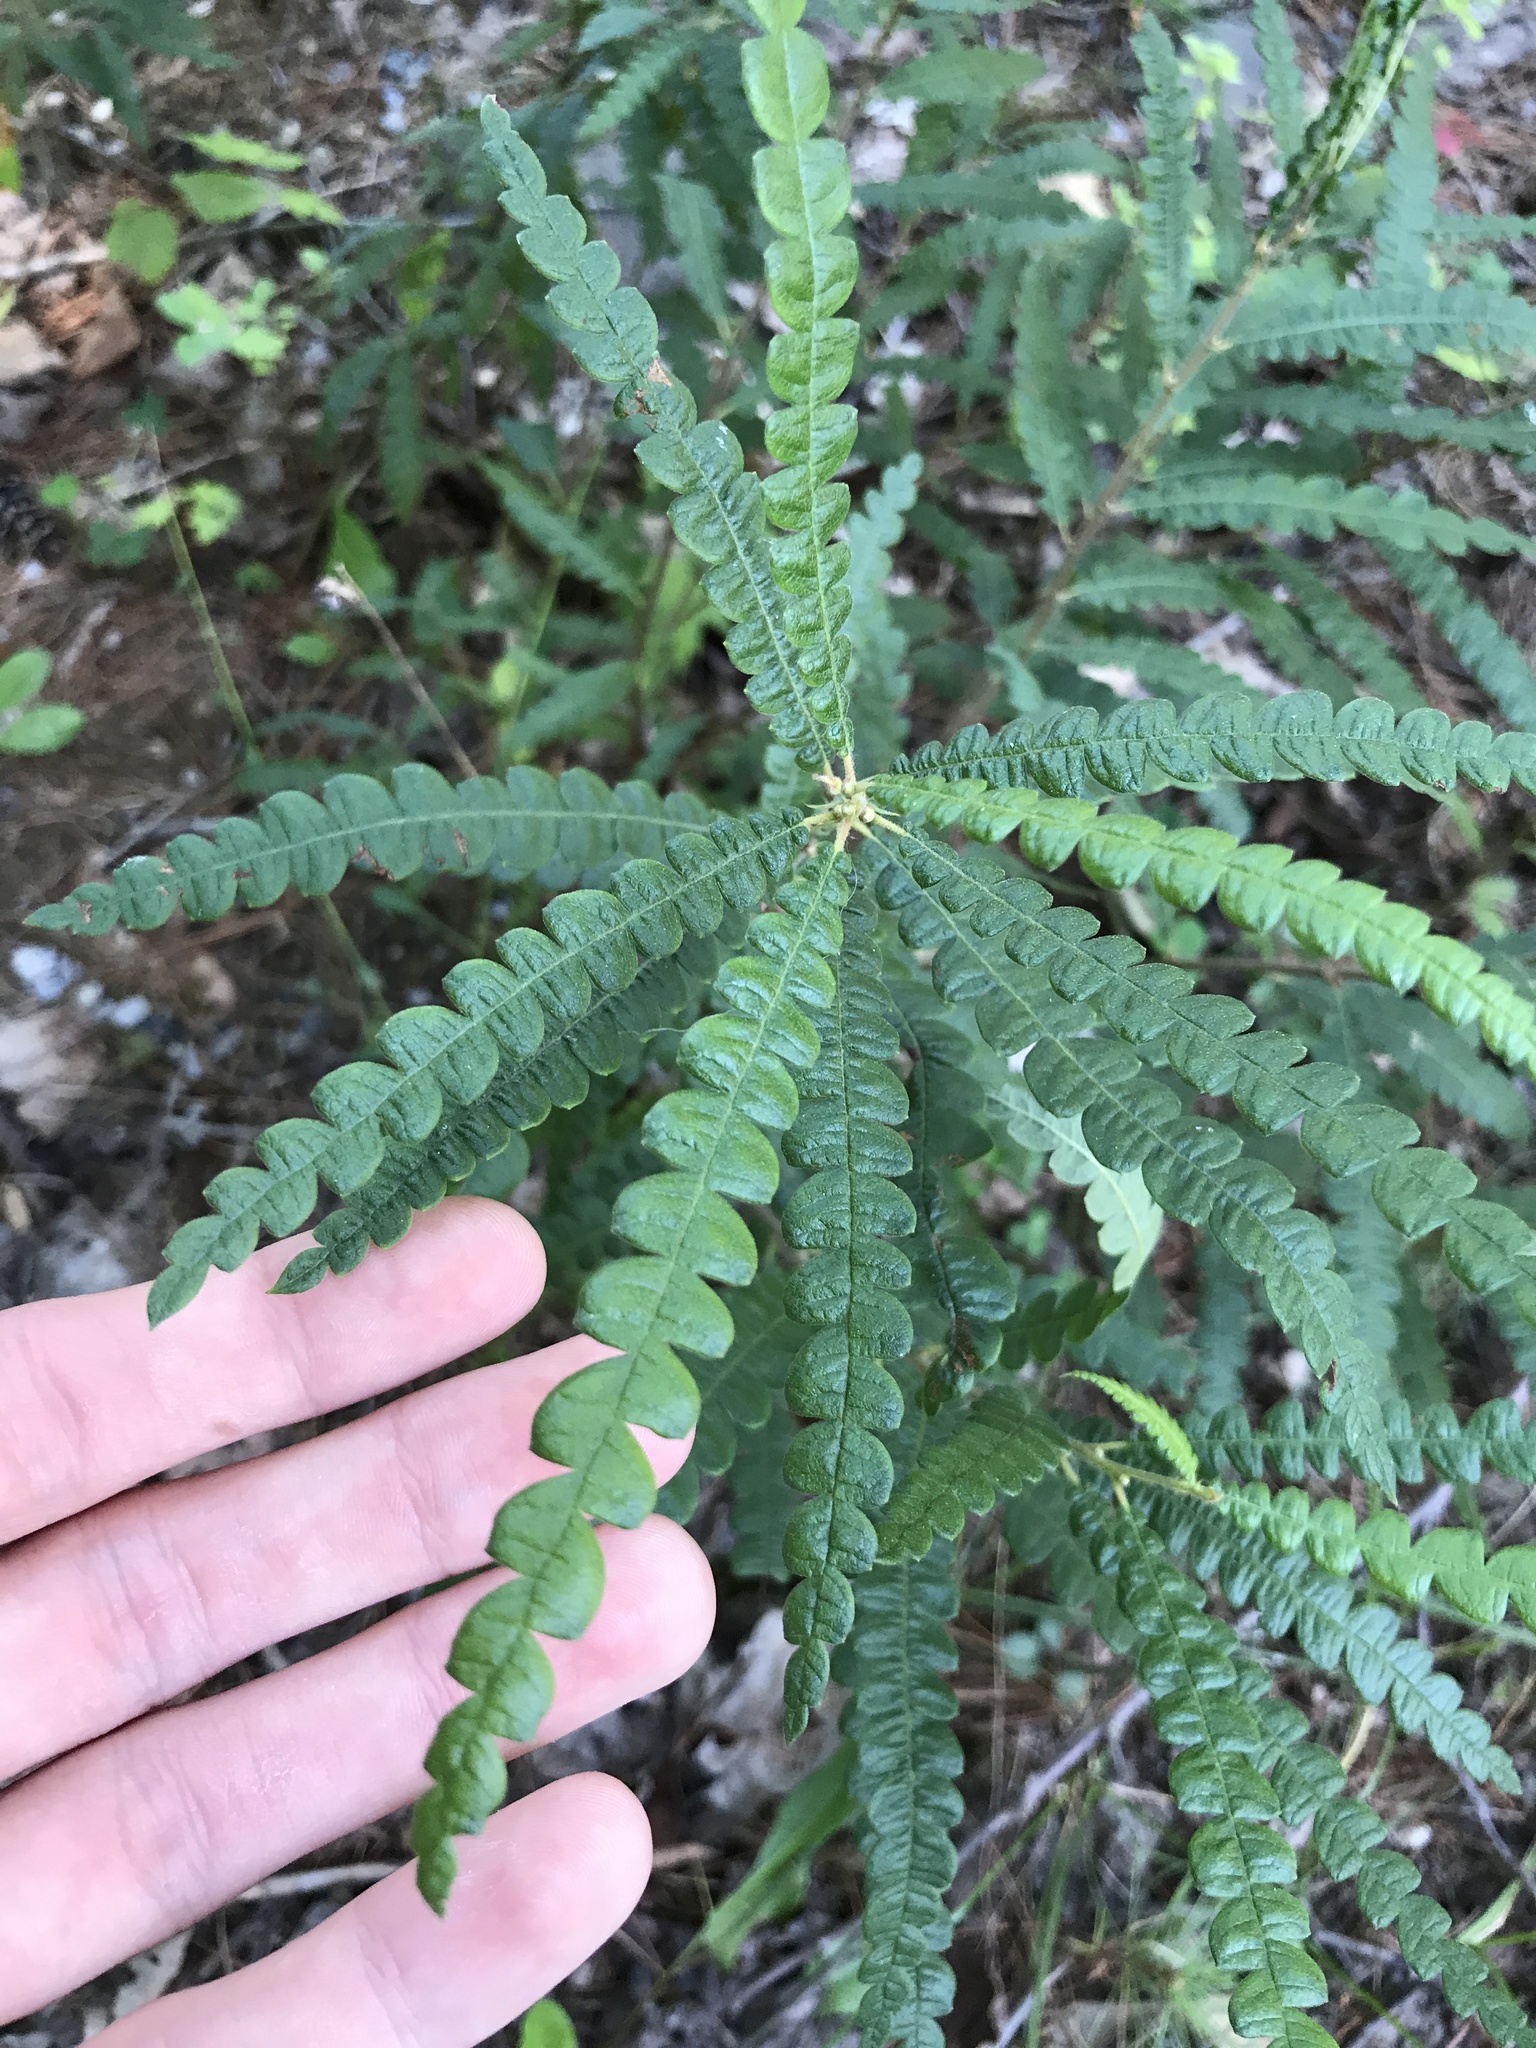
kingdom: Plantae
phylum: Tracheophyta
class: Magnoliopsida
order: Fagales
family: Myricaceae
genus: Comptonia
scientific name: Comptonia peregrina
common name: Sweet-fern
